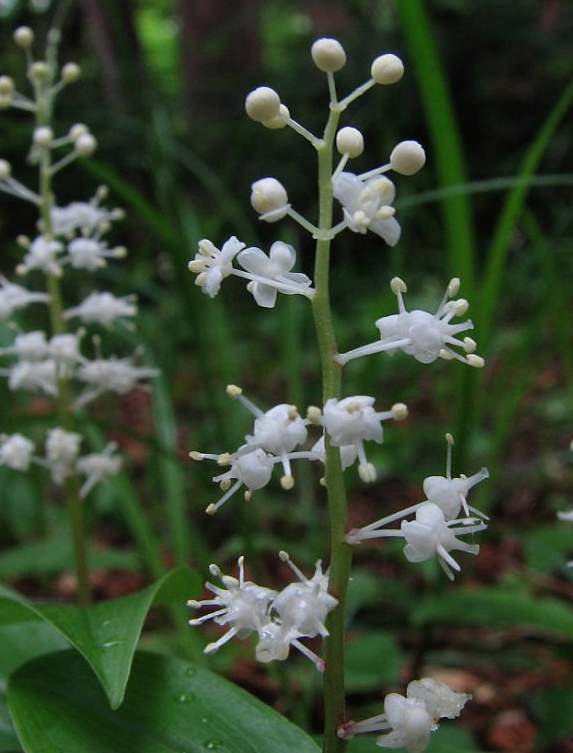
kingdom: Plantae
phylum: Tracheophyta
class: Liliopsida
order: Asparagales
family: Asparagaceae
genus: Maianthemum
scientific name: Maianthemum canadense
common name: False lily-of-the-valley
